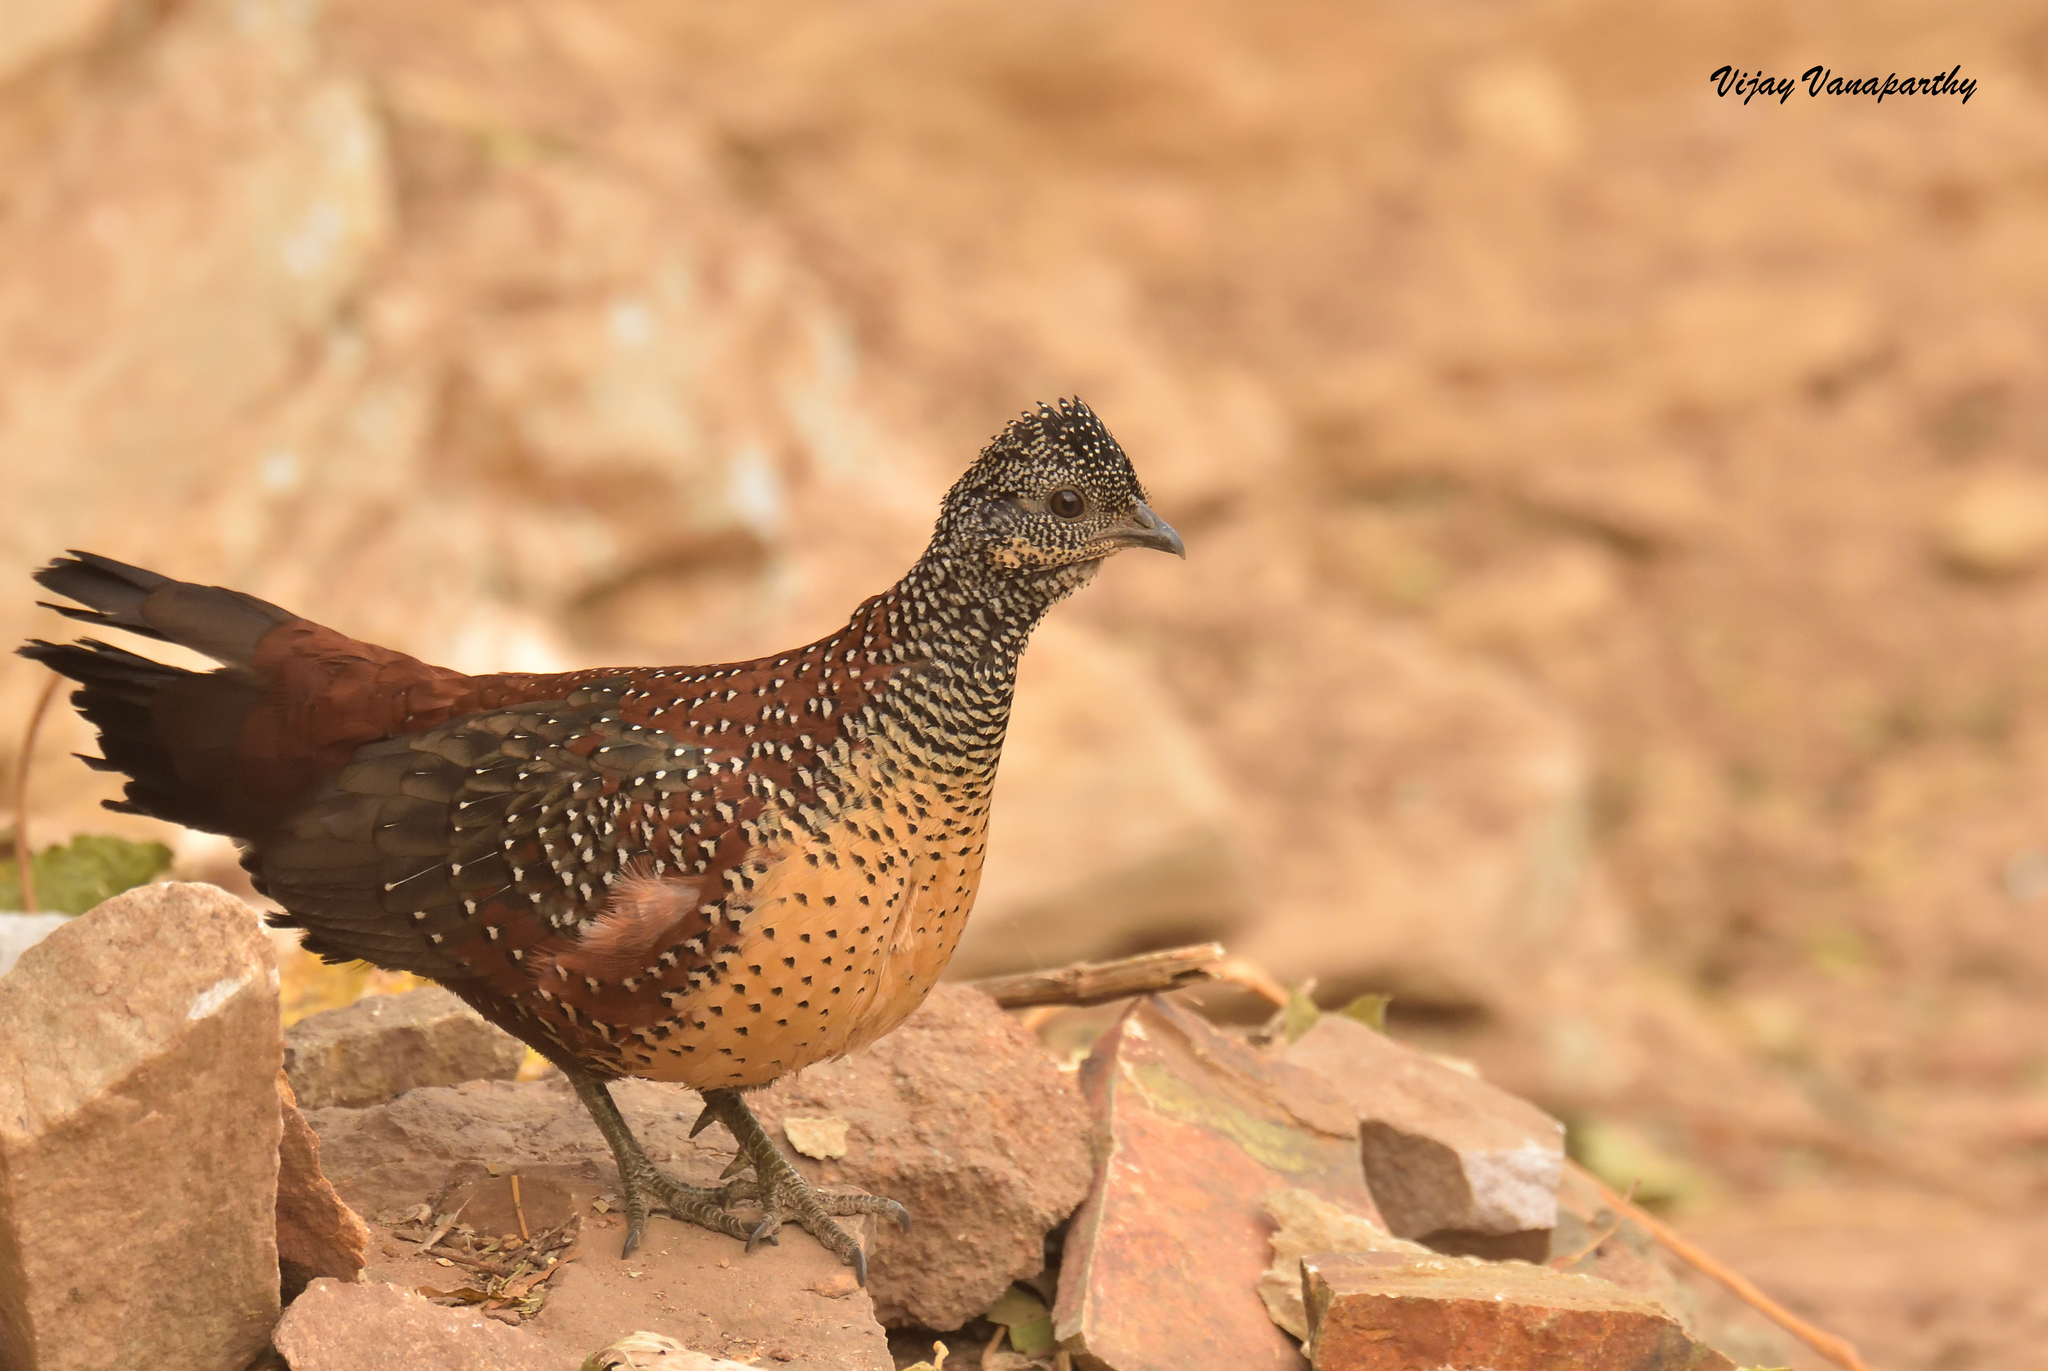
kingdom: Animalia
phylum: Chordata
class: Aves
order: Galliformes
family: Phasianidae
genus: Galloperdix
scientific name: Galloperdix lunulata
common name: Painted spurfowl
